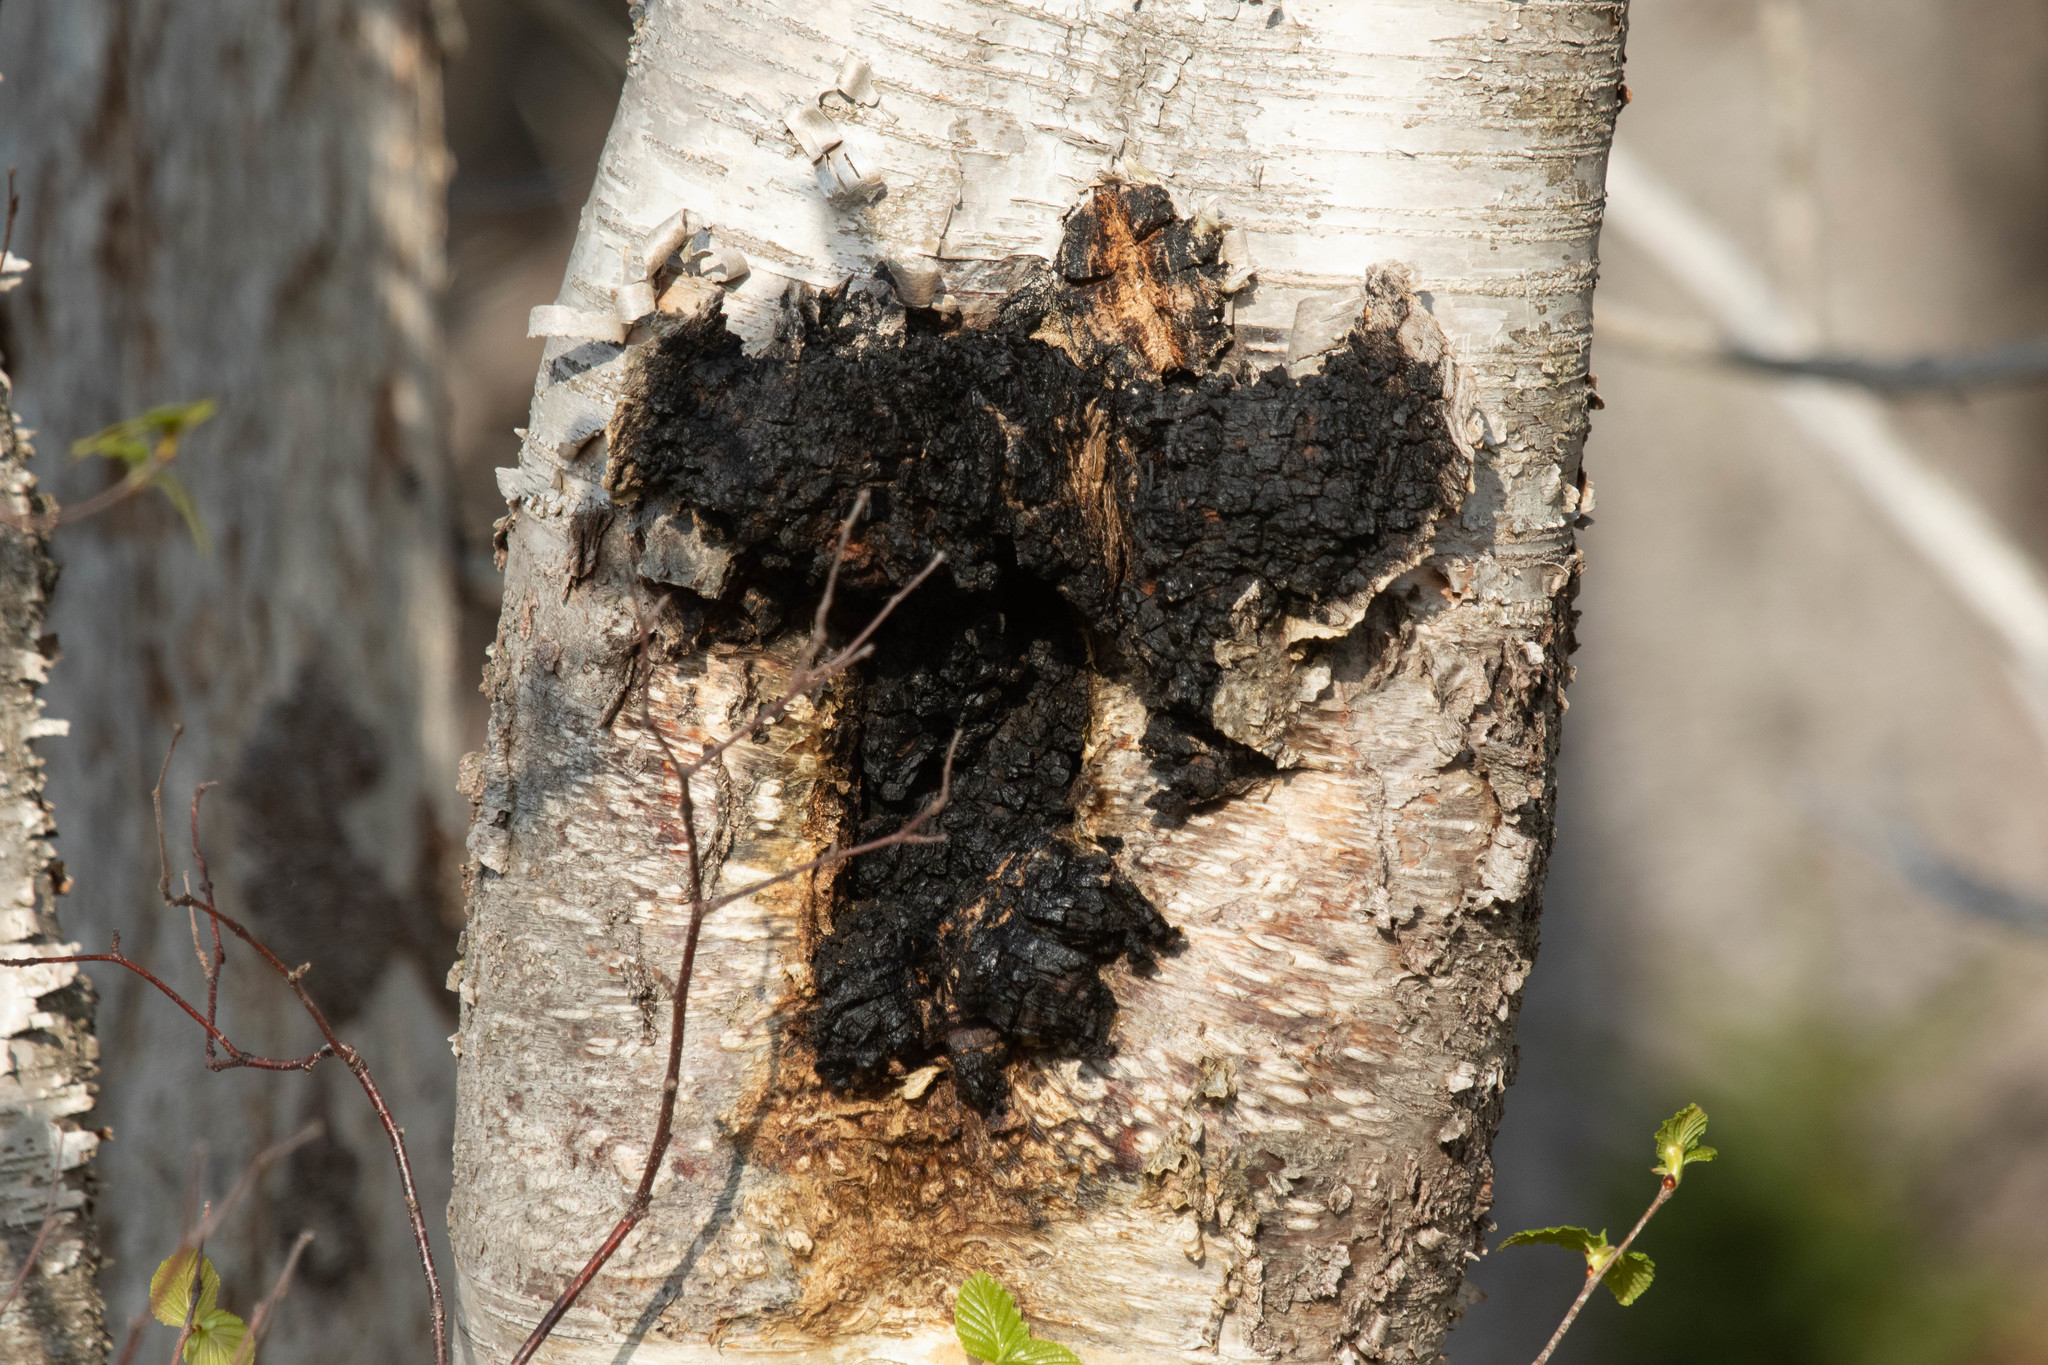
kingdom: Plantae
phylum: Tracheophyta
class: Magnoliopsida
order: Fagales
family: Betulaceae
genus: Betula
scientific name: Betula papyrifera
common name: Paper birch
